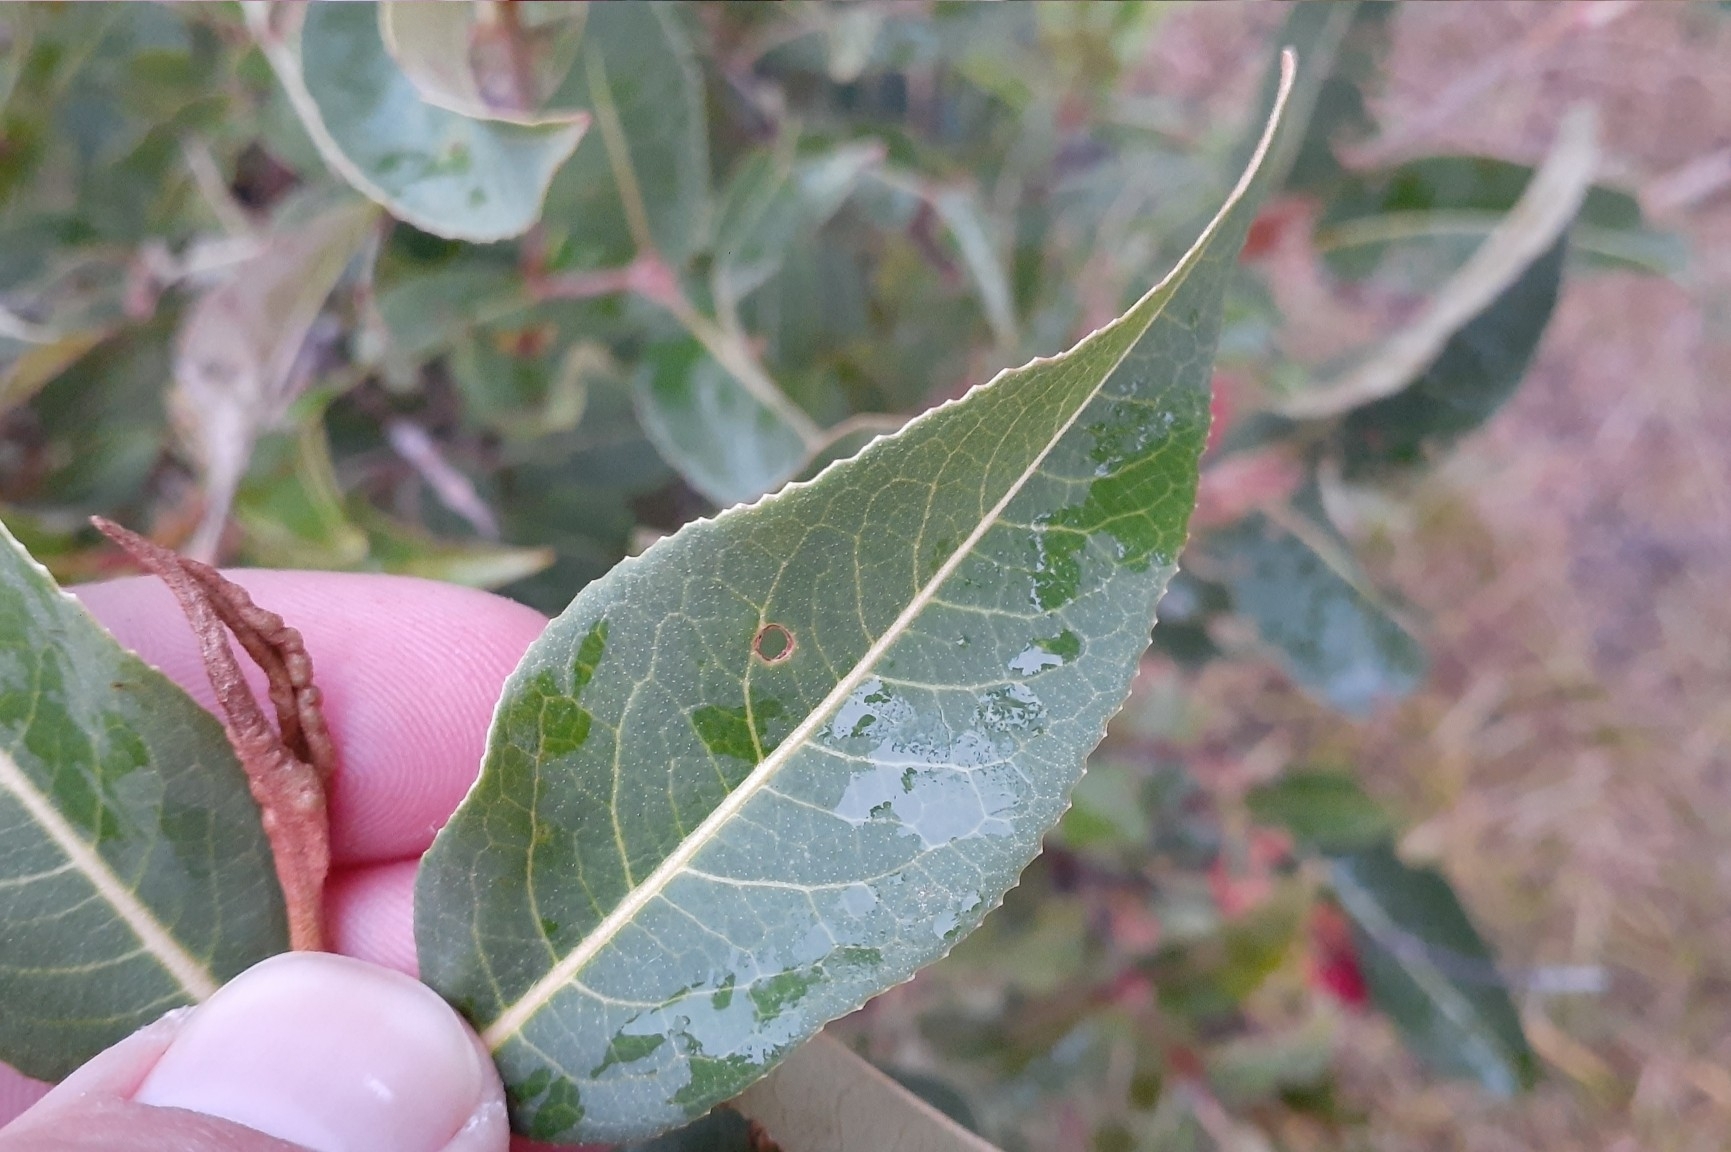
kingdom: Plantae
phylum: Tracheophyta
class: Magnoliopsida
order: Dipsacales
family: Viburnaceae
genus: Viburnum
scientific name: Viburnum cassinoides
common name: Swamp haw
